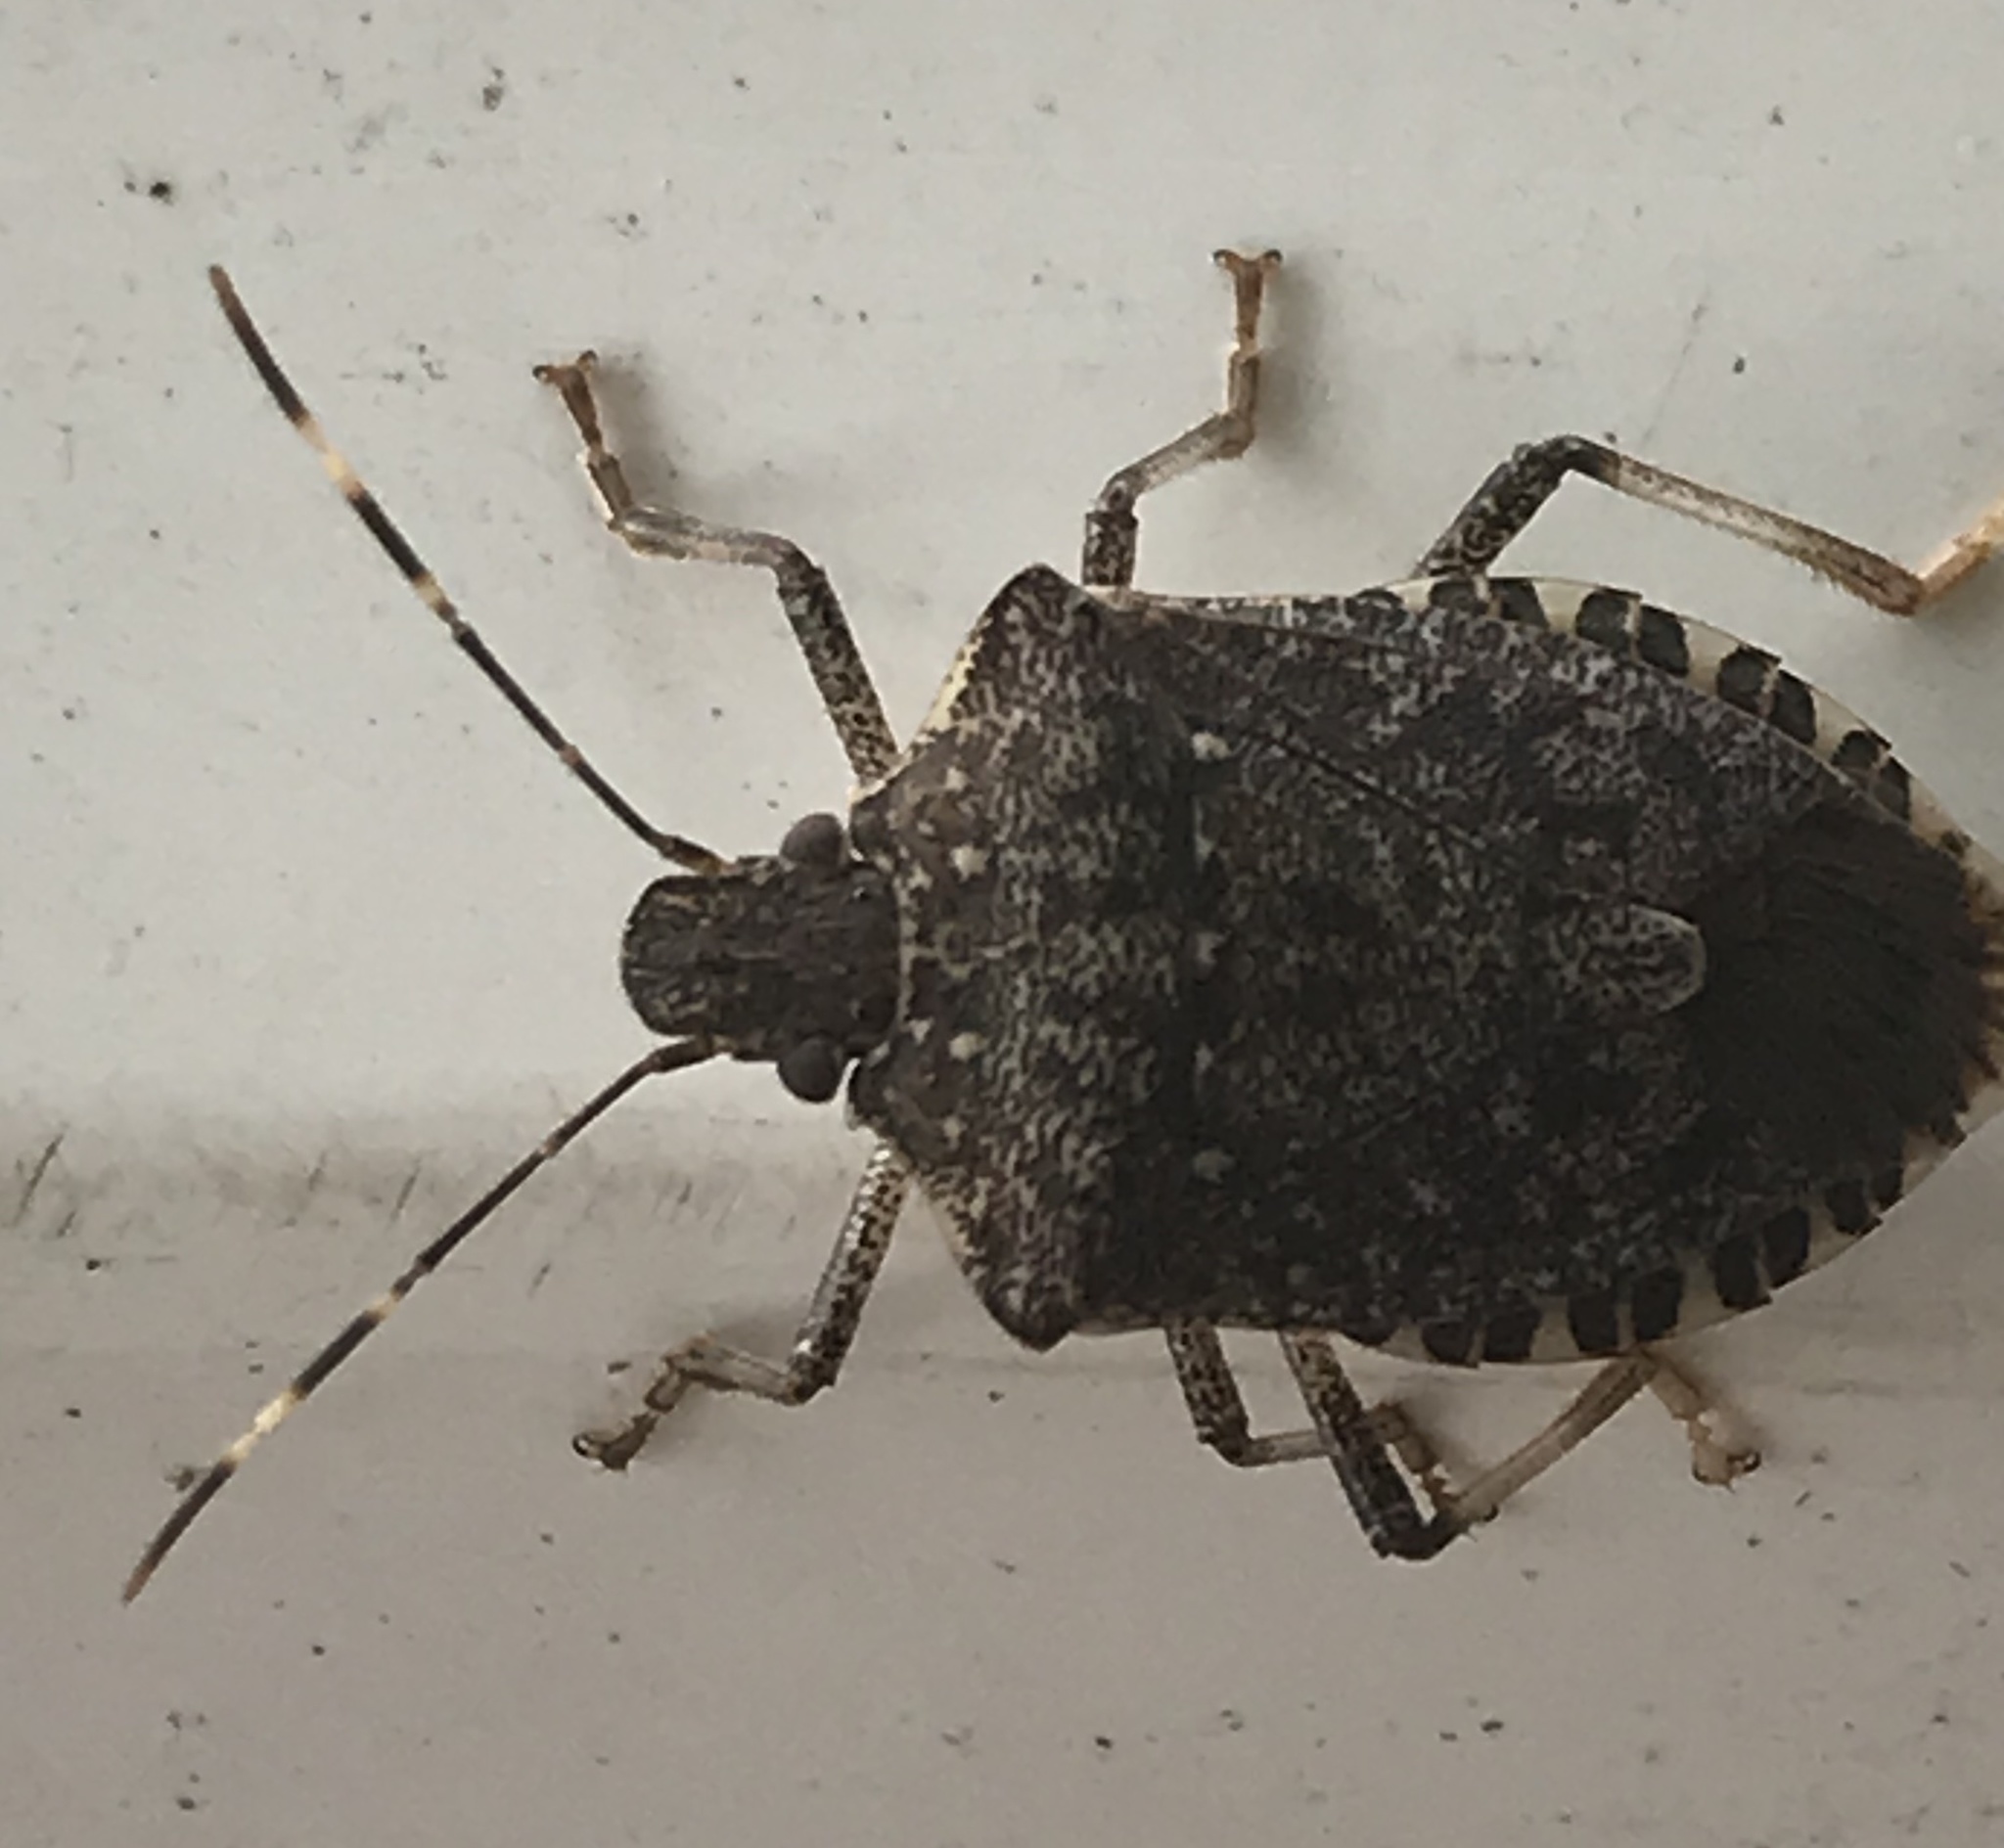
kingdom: Animalia
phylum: Arthropoda
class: Insecta
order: Hemiptera
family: Pentatomidae
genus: Halyomorpha
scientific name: Halyomorpha halys
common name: Brown marmorated stink bug
